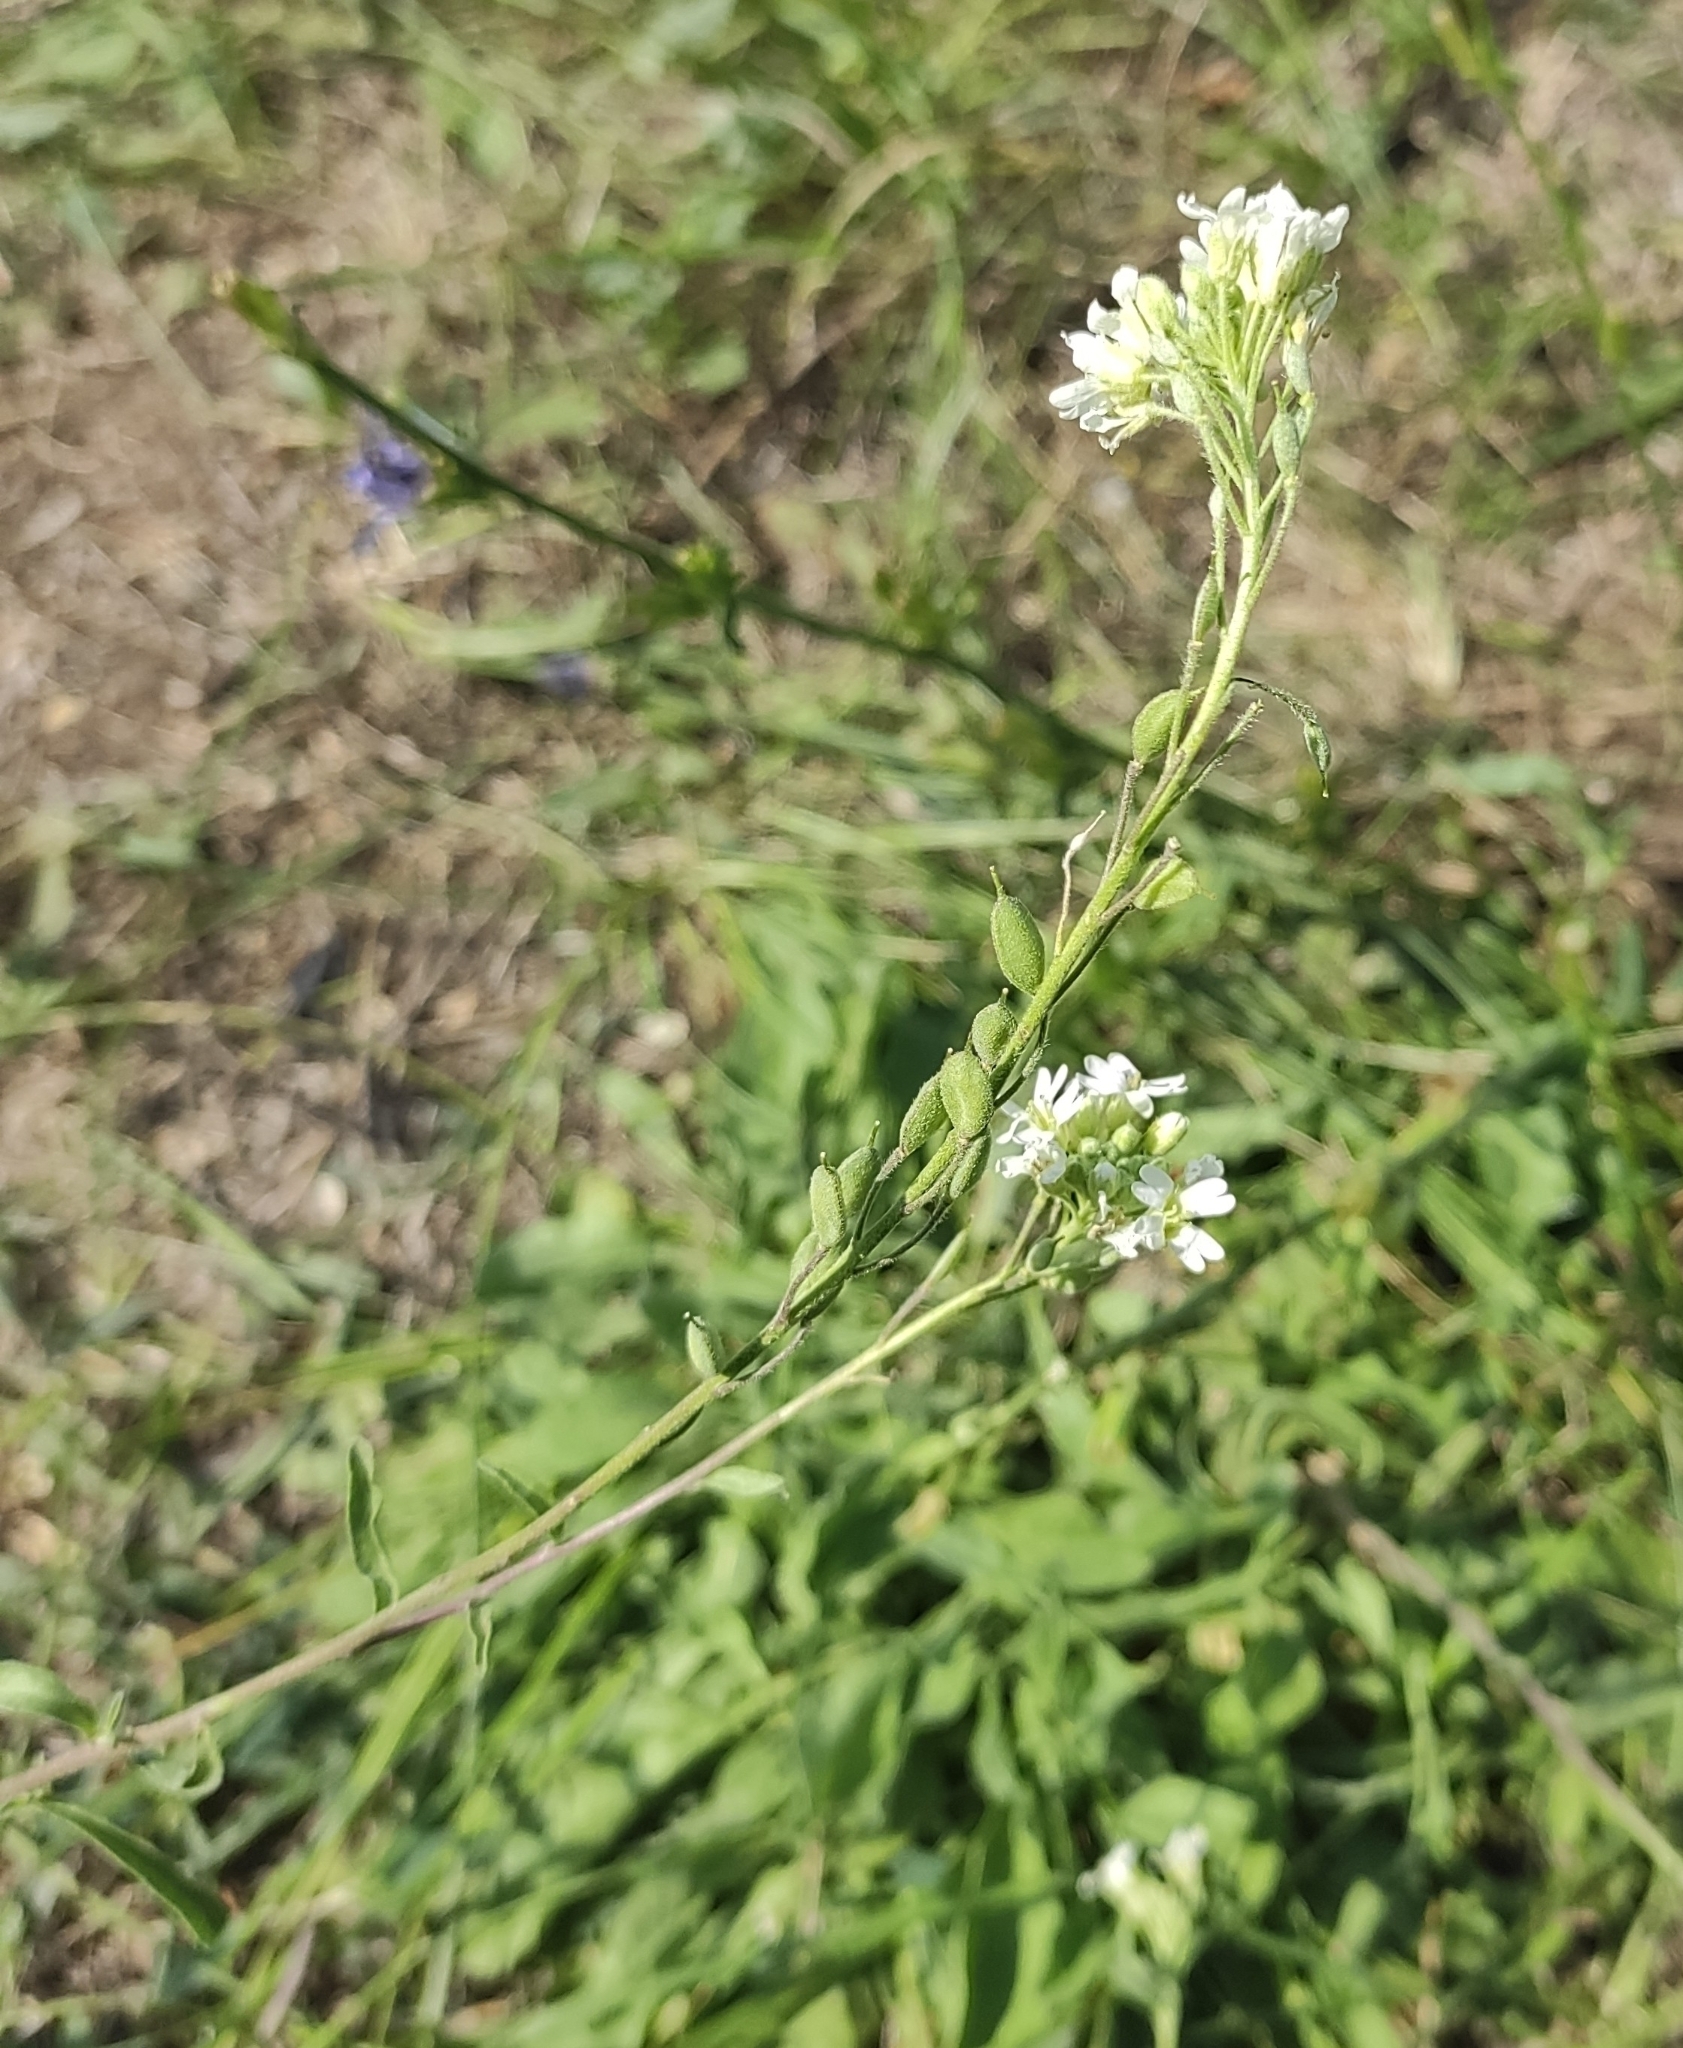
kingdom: Plantae
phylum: Tracheophyta
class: Magnoliopsida
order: Brassicales
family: Brassicaceae
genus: Berteroa
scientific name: Berteroa incana
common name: Hoary alison
